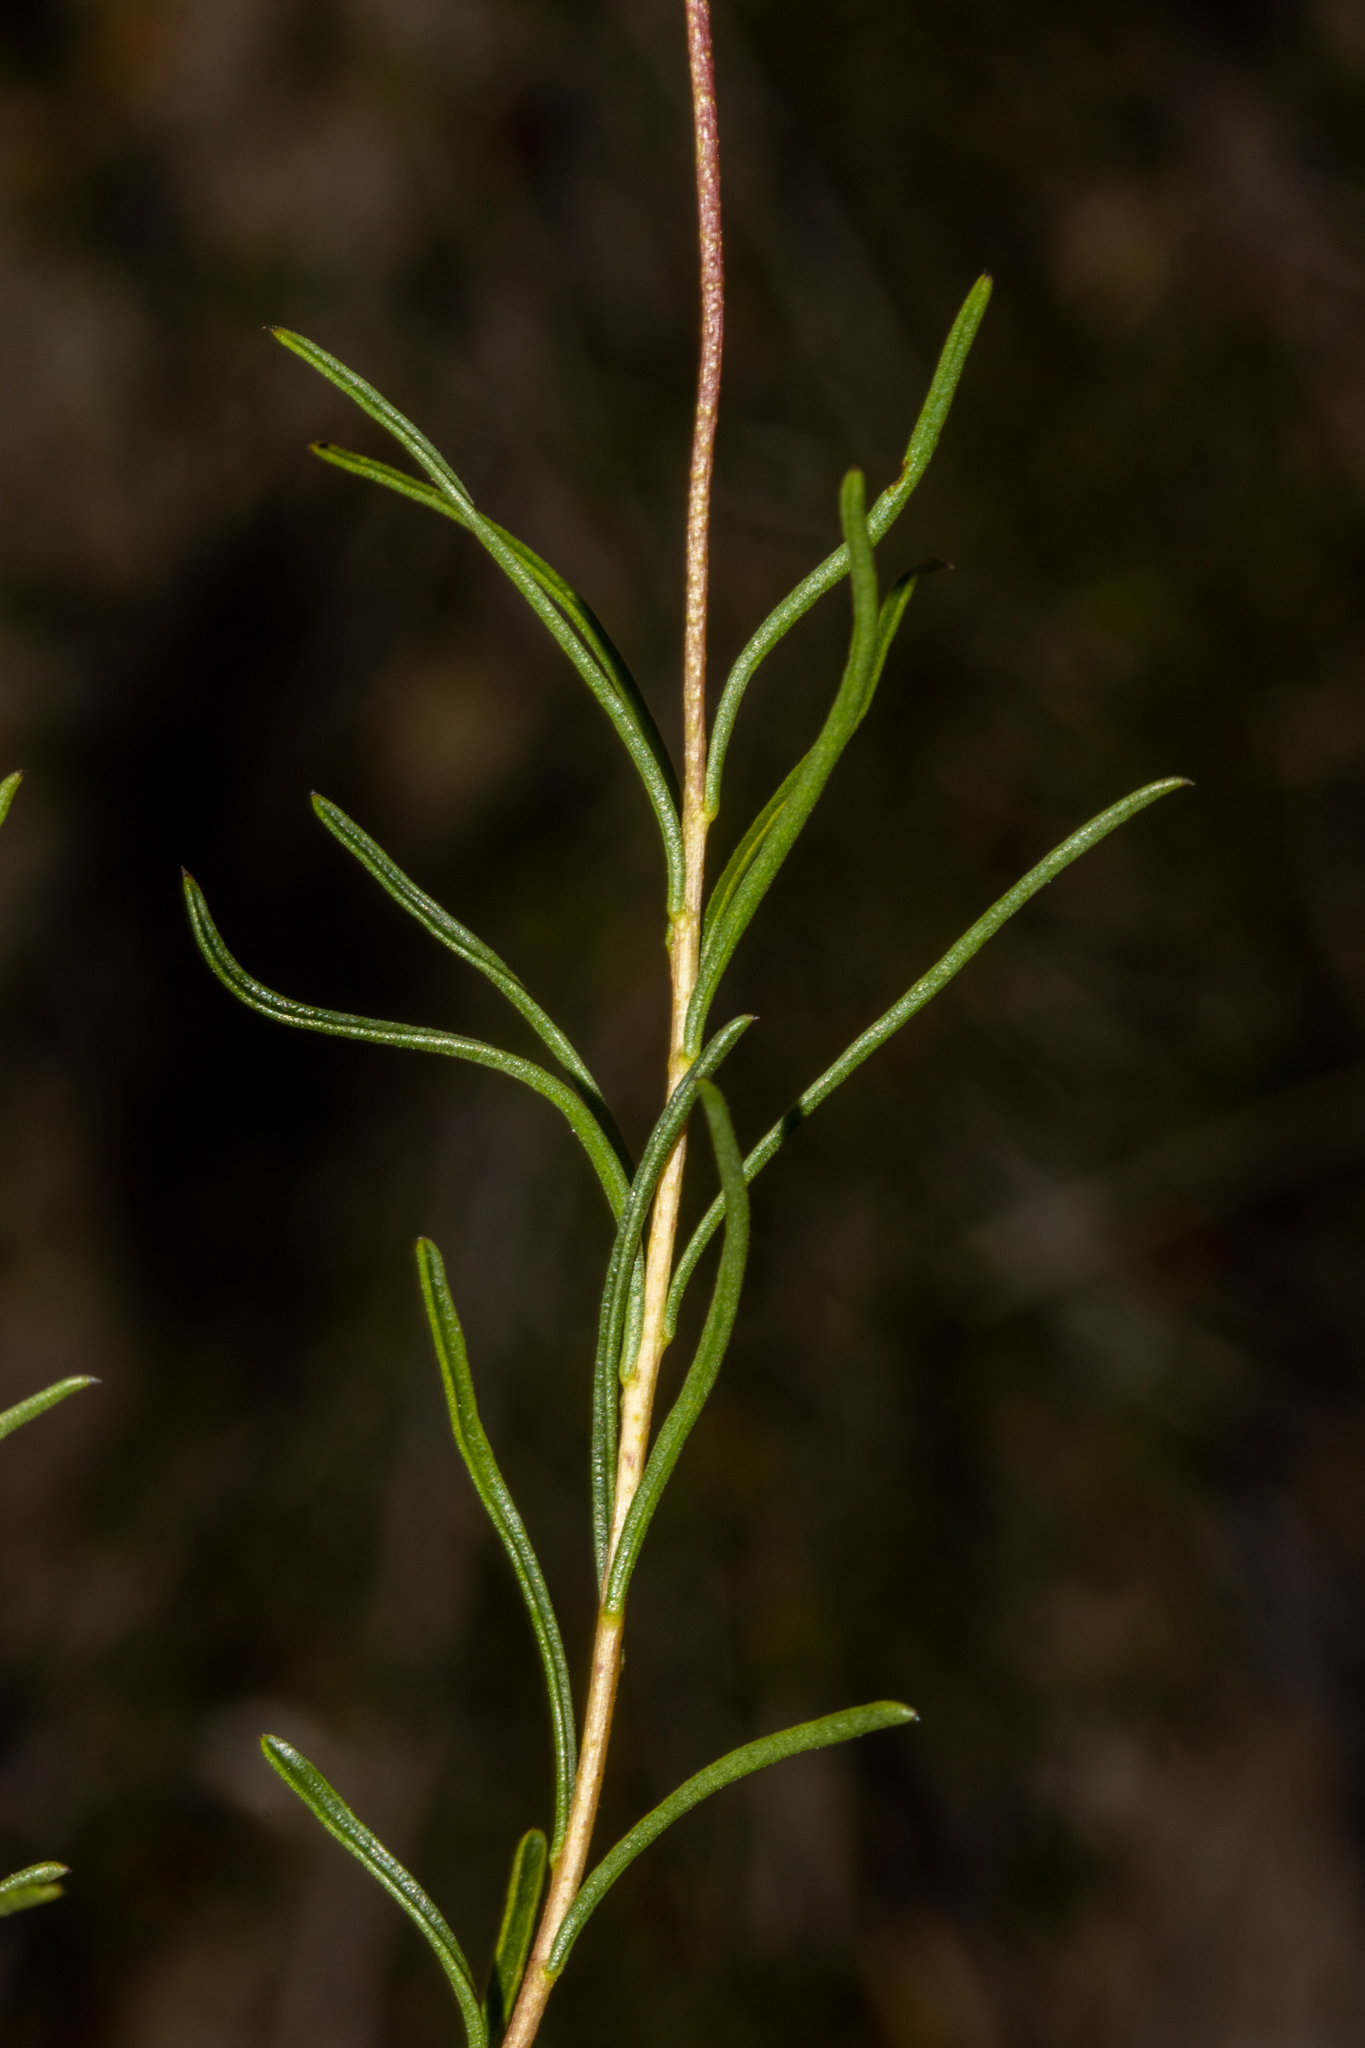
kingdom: Plantae
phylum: Tracheophyta
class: Magnoliopsida
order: Apiales
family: Pittosporaceae
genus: Cheiranthera
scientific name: Cheiranthera alternifolia
